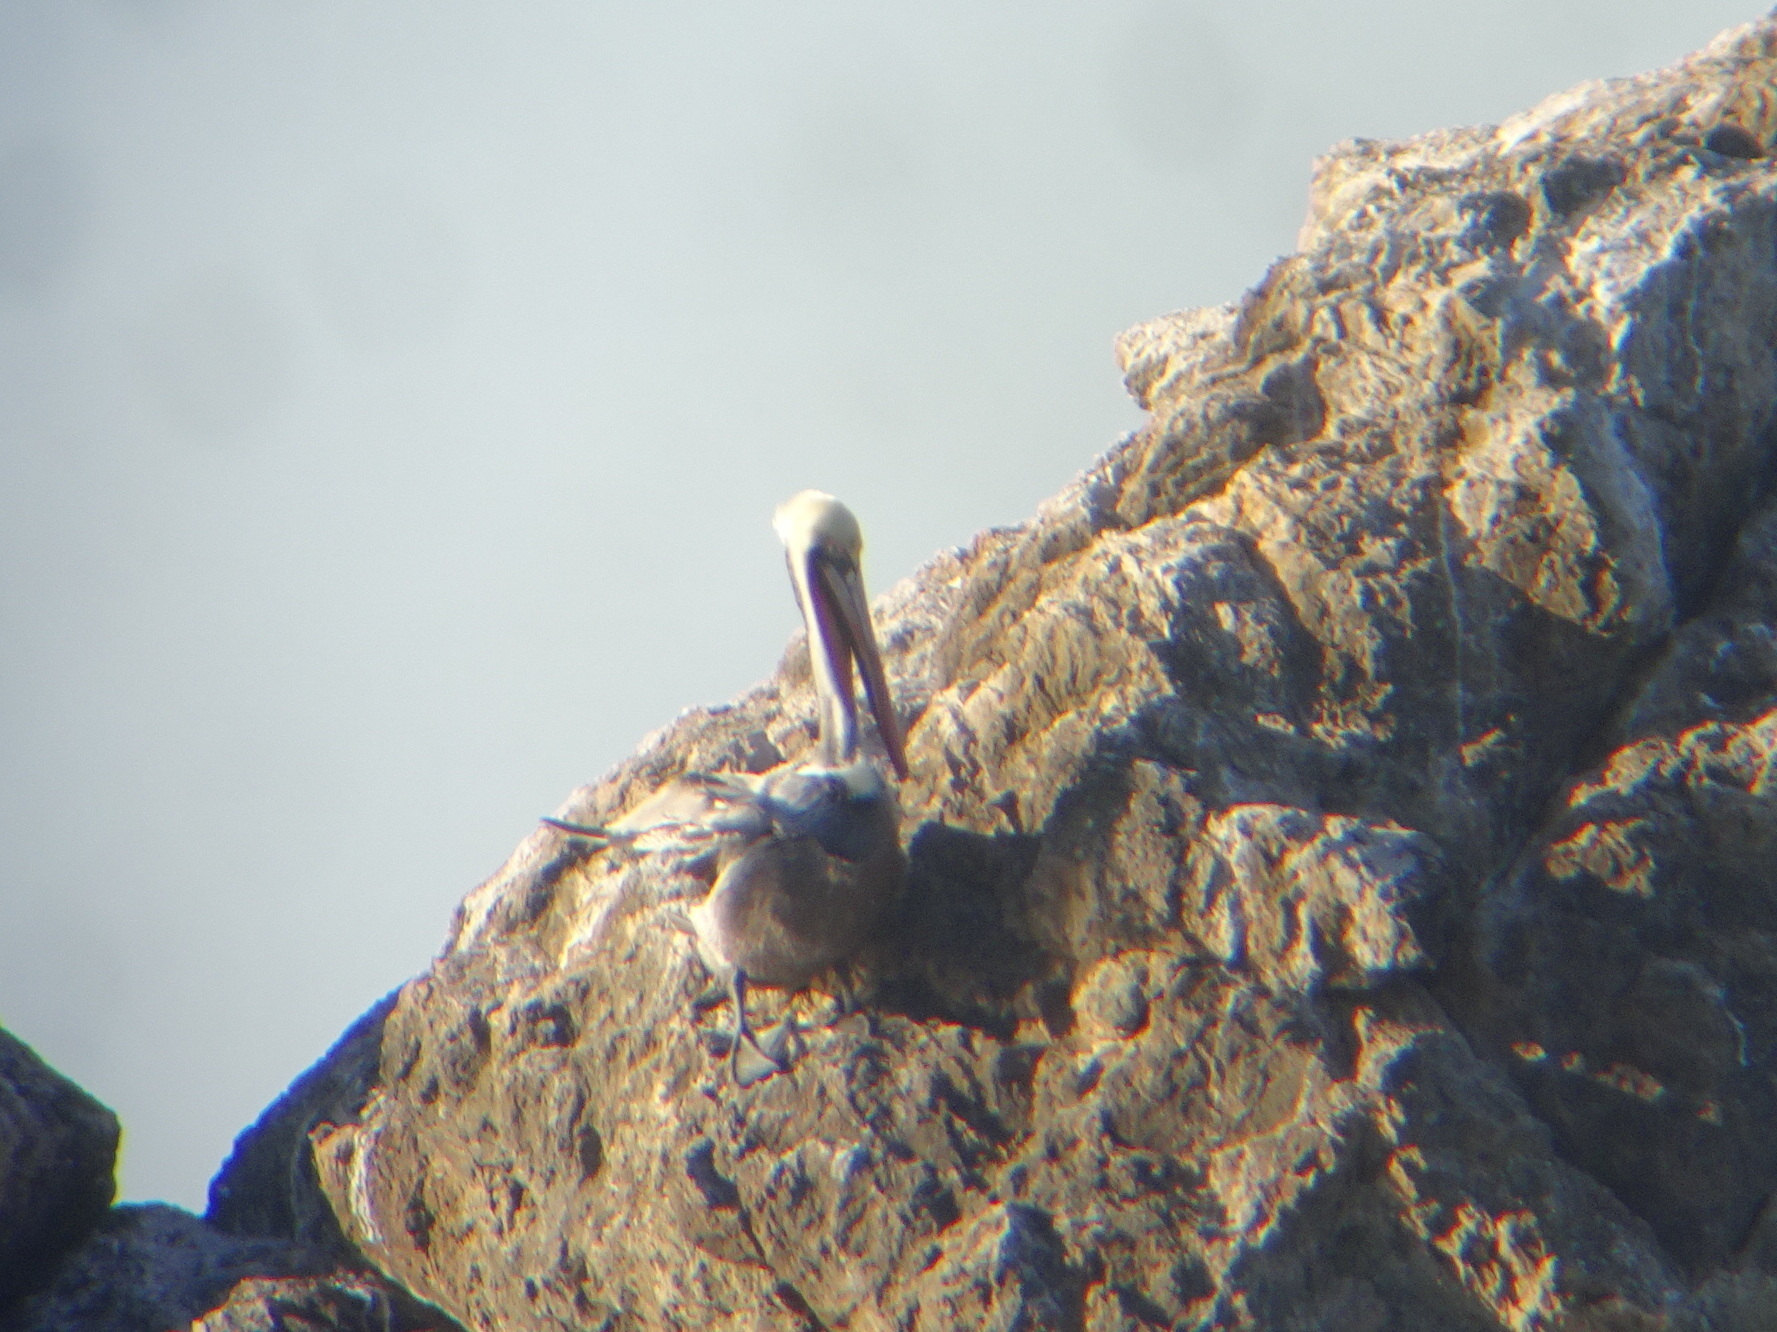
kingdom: Animalia
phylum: Chordata
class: Aves
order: Pelecaniformes
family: Pelecanidae
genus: Pelecanus
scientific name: Pelecanus occidentalis
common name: Brown pelican
